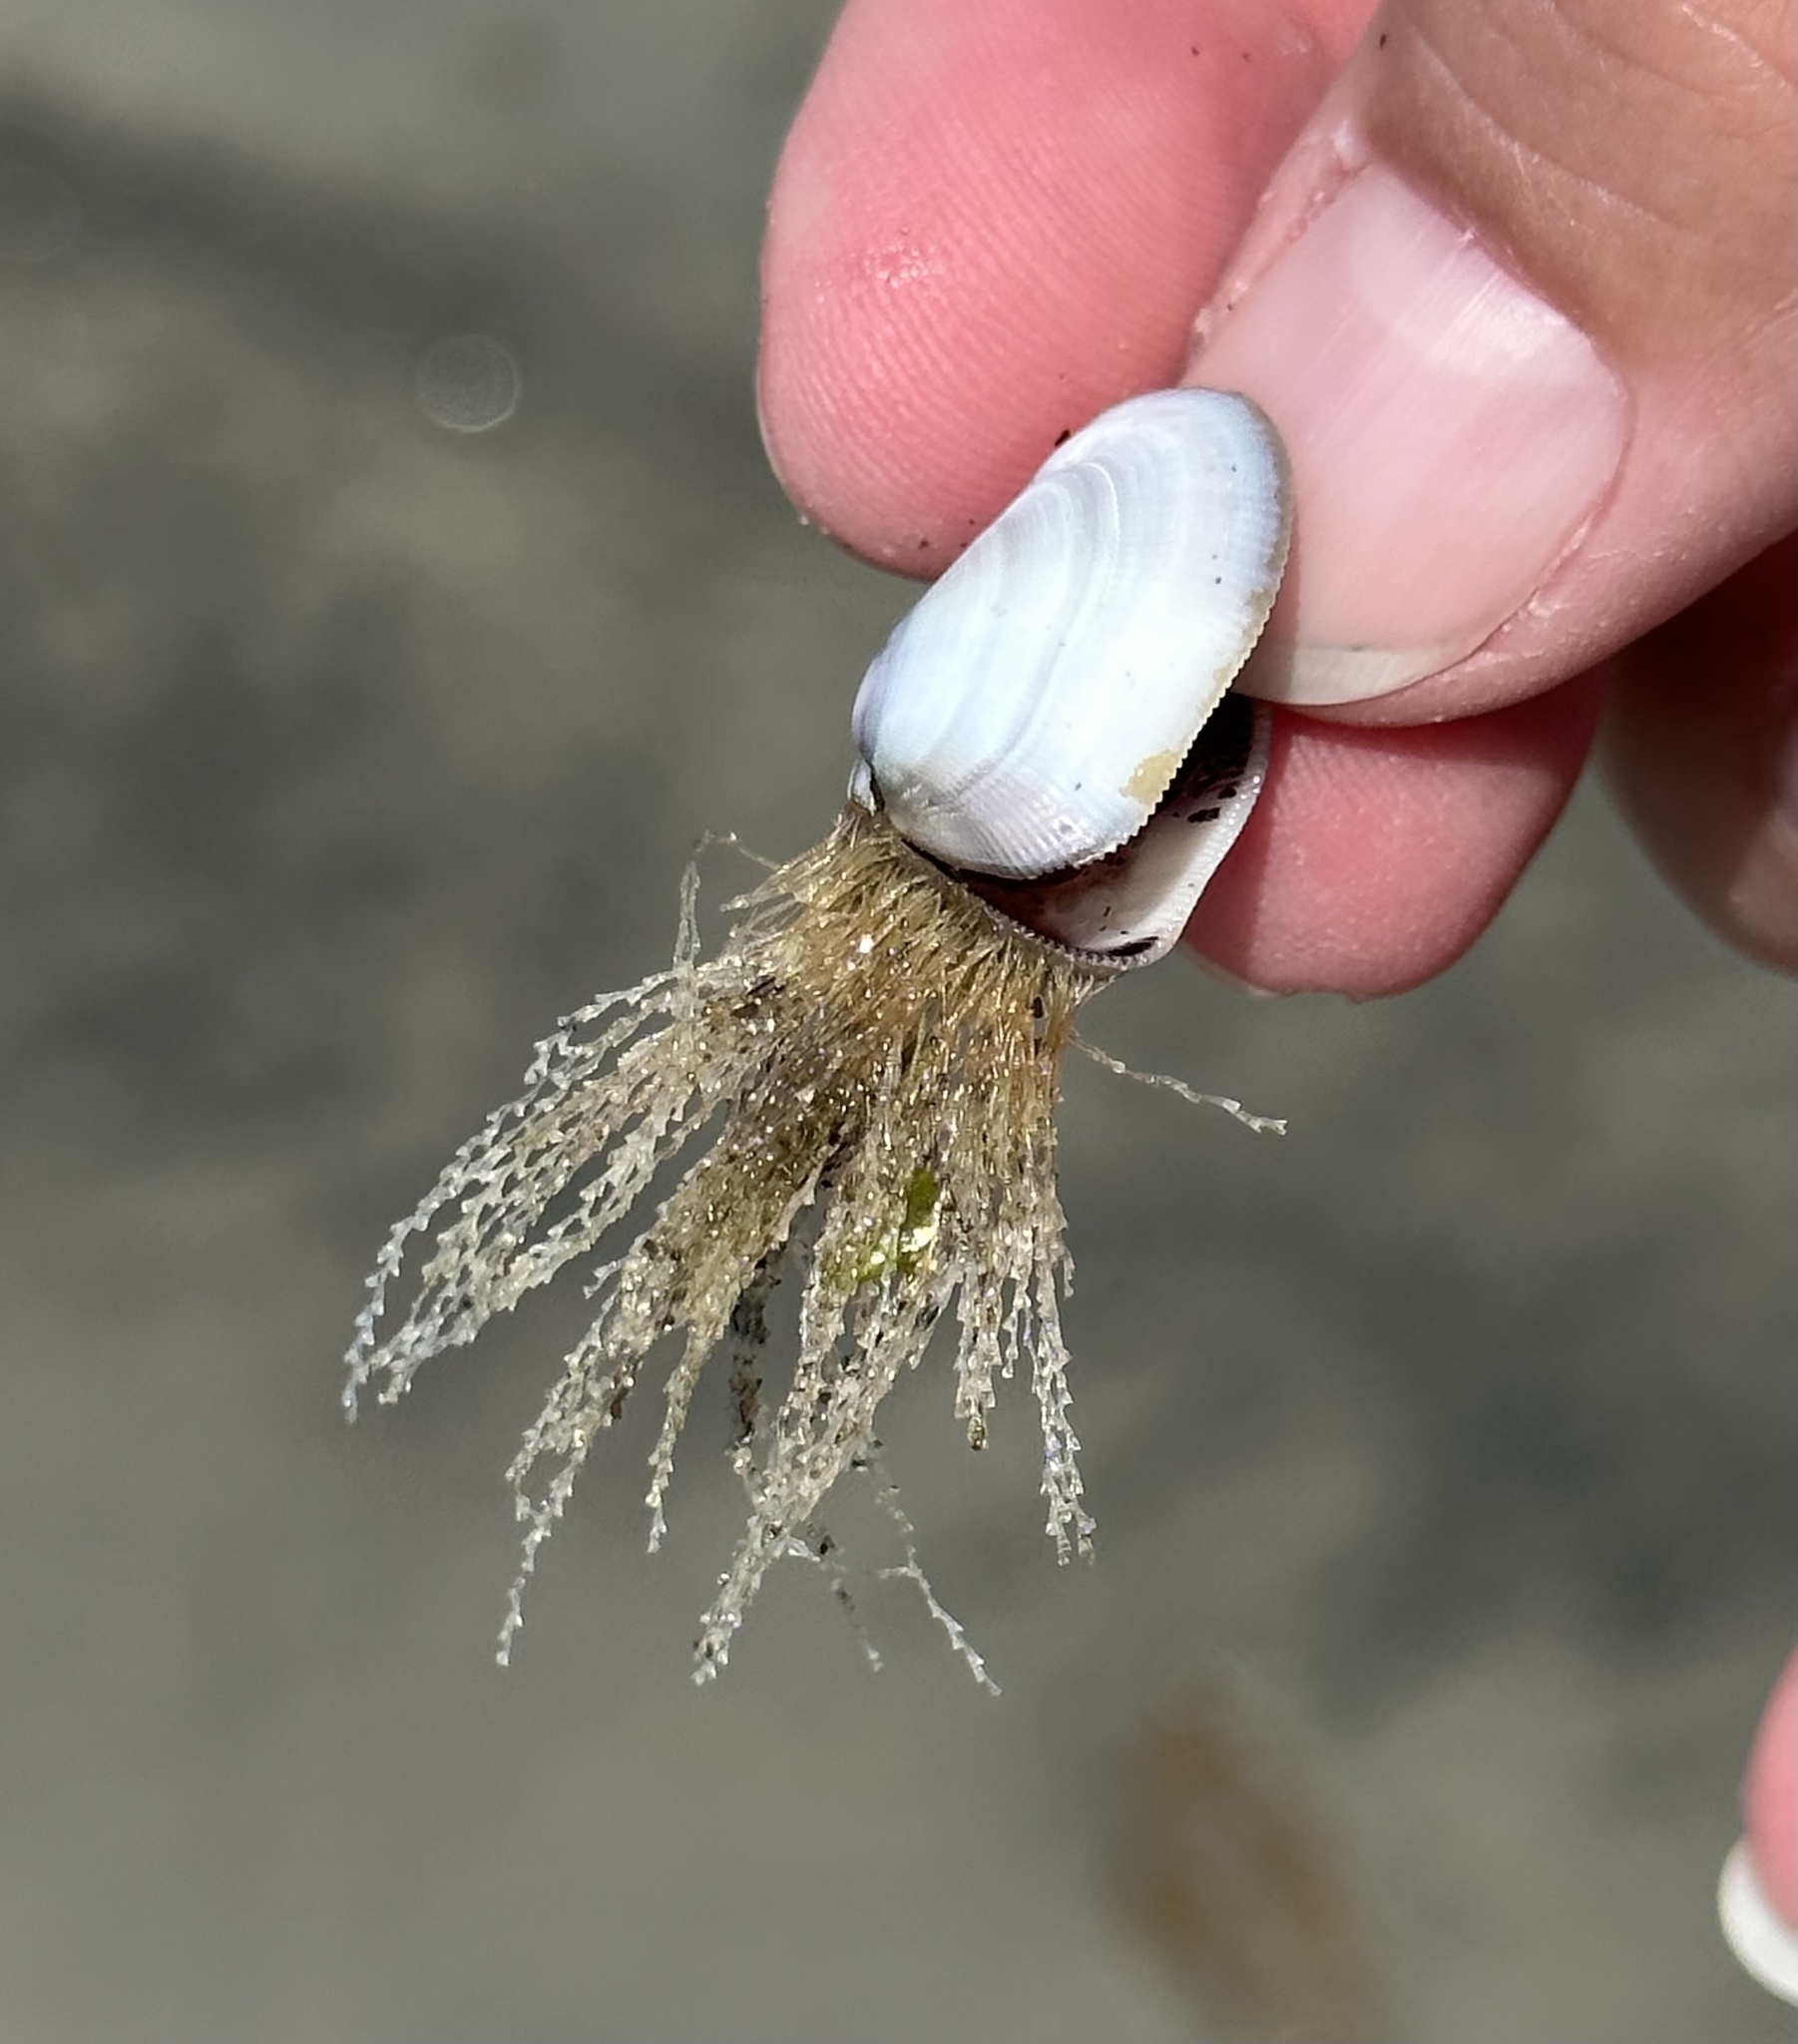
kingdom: Animalia
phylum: Mollusca
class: Bivalvia
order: Cardiida
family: Donacidae
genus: Donax
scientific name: Donax gouldii
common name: Gould beanclam
